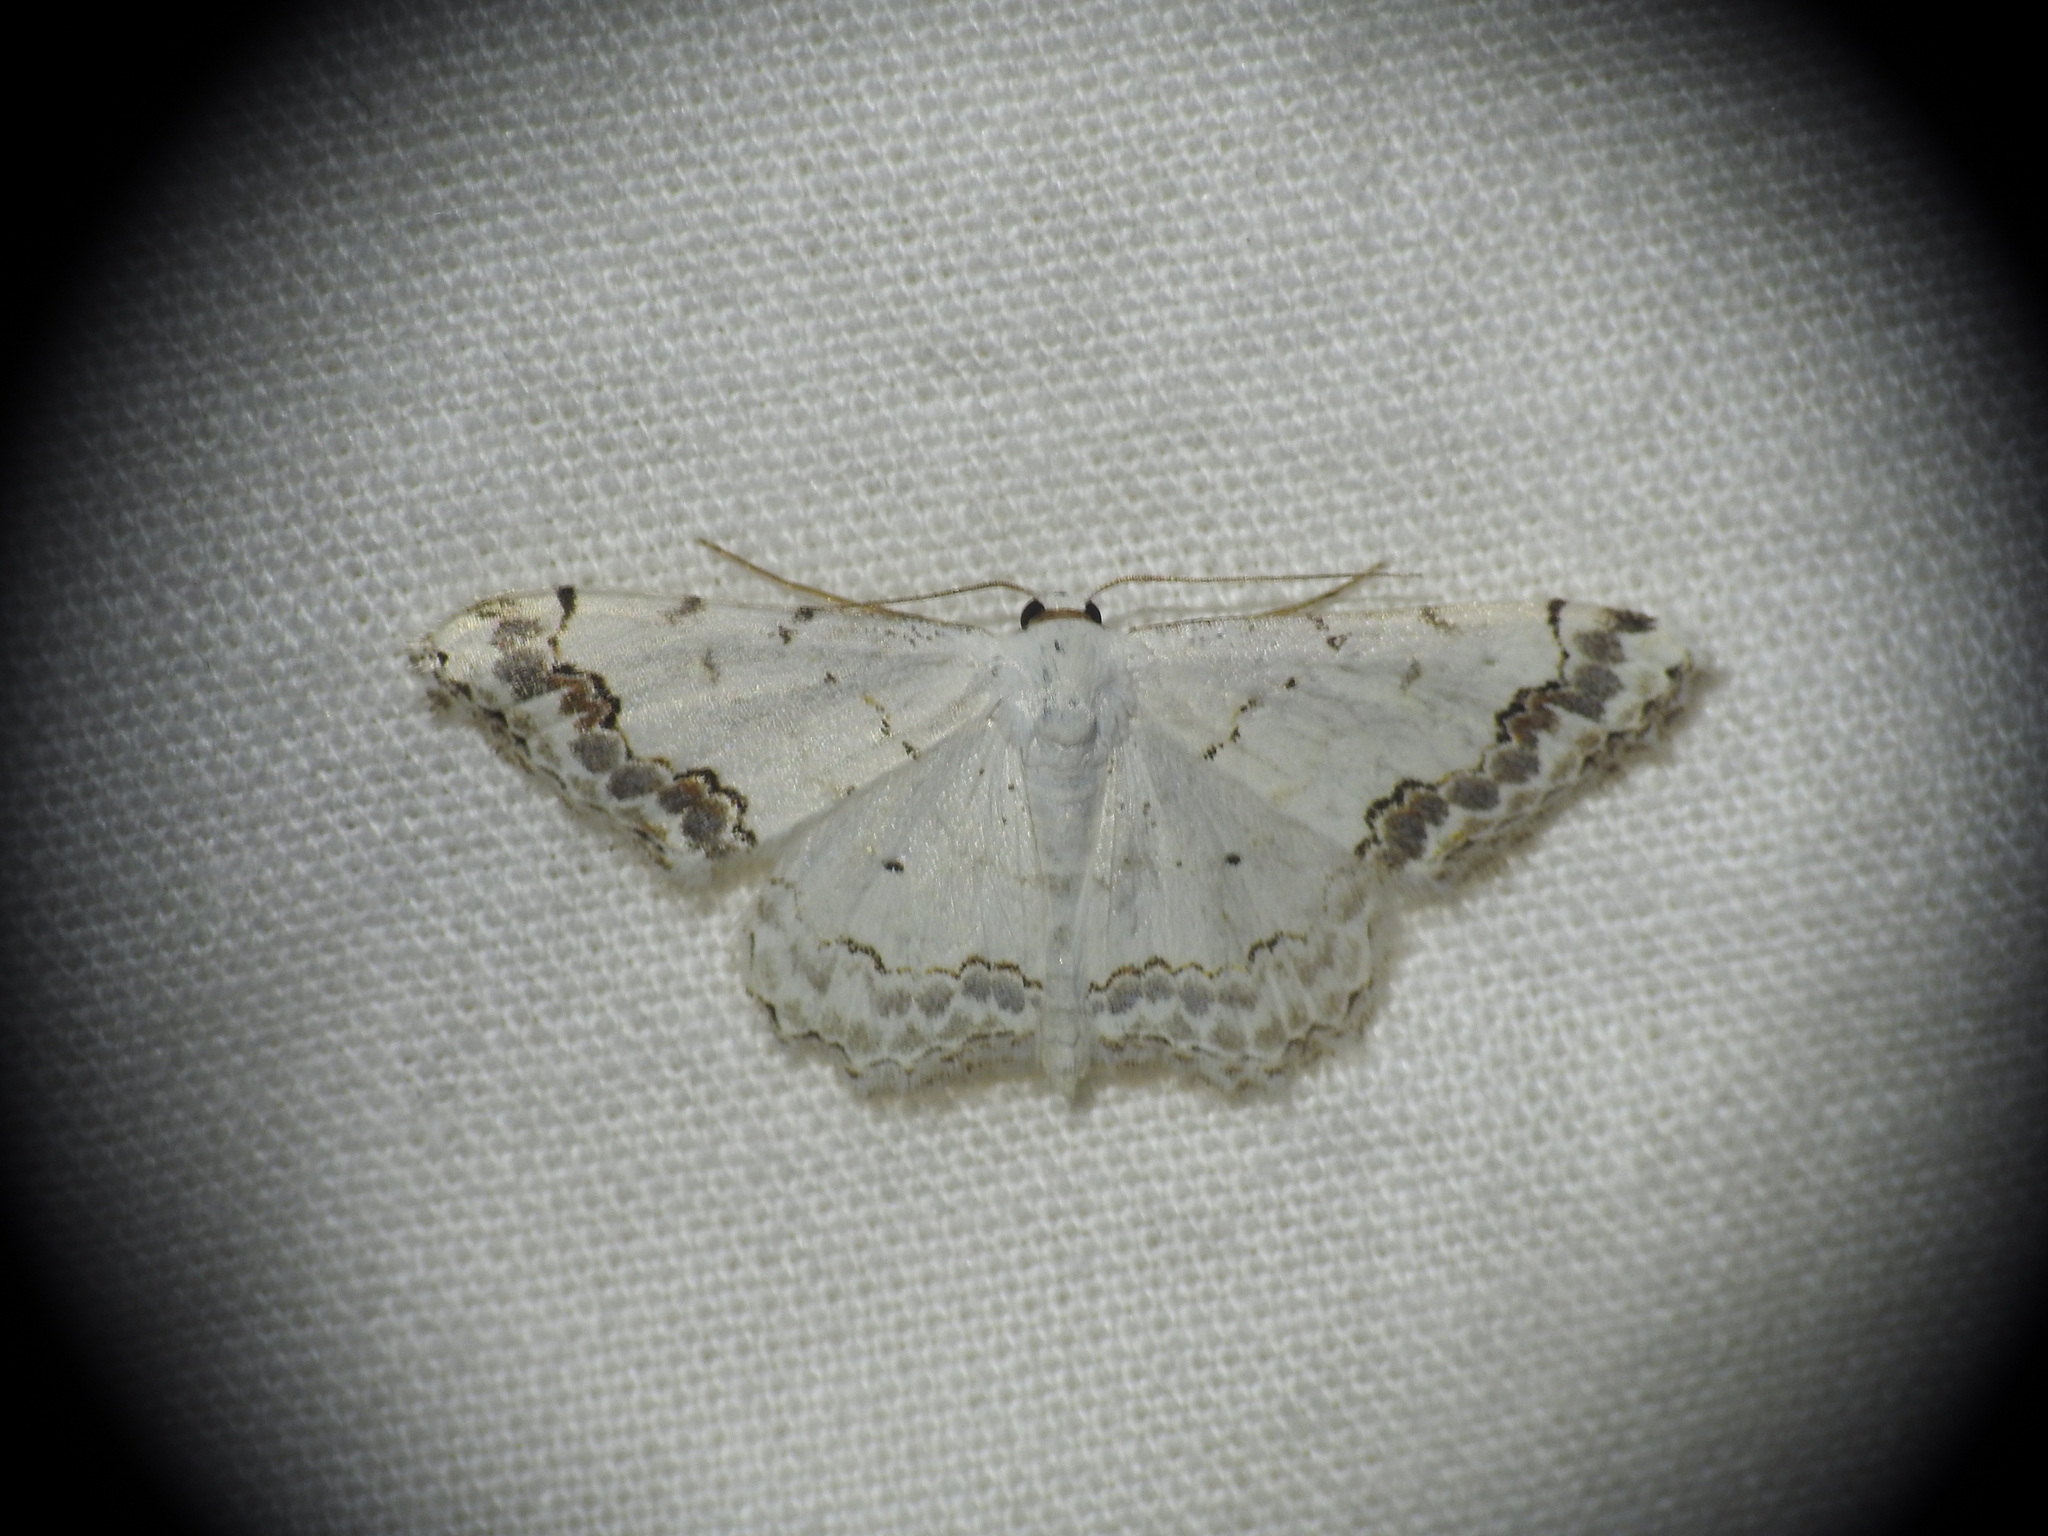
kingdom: Animalia
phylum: Arthropoda
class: Insecta
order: Lepidoptera
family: Geometridae
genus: Scopula
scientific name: Scopula decorata
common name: Middle lace border
